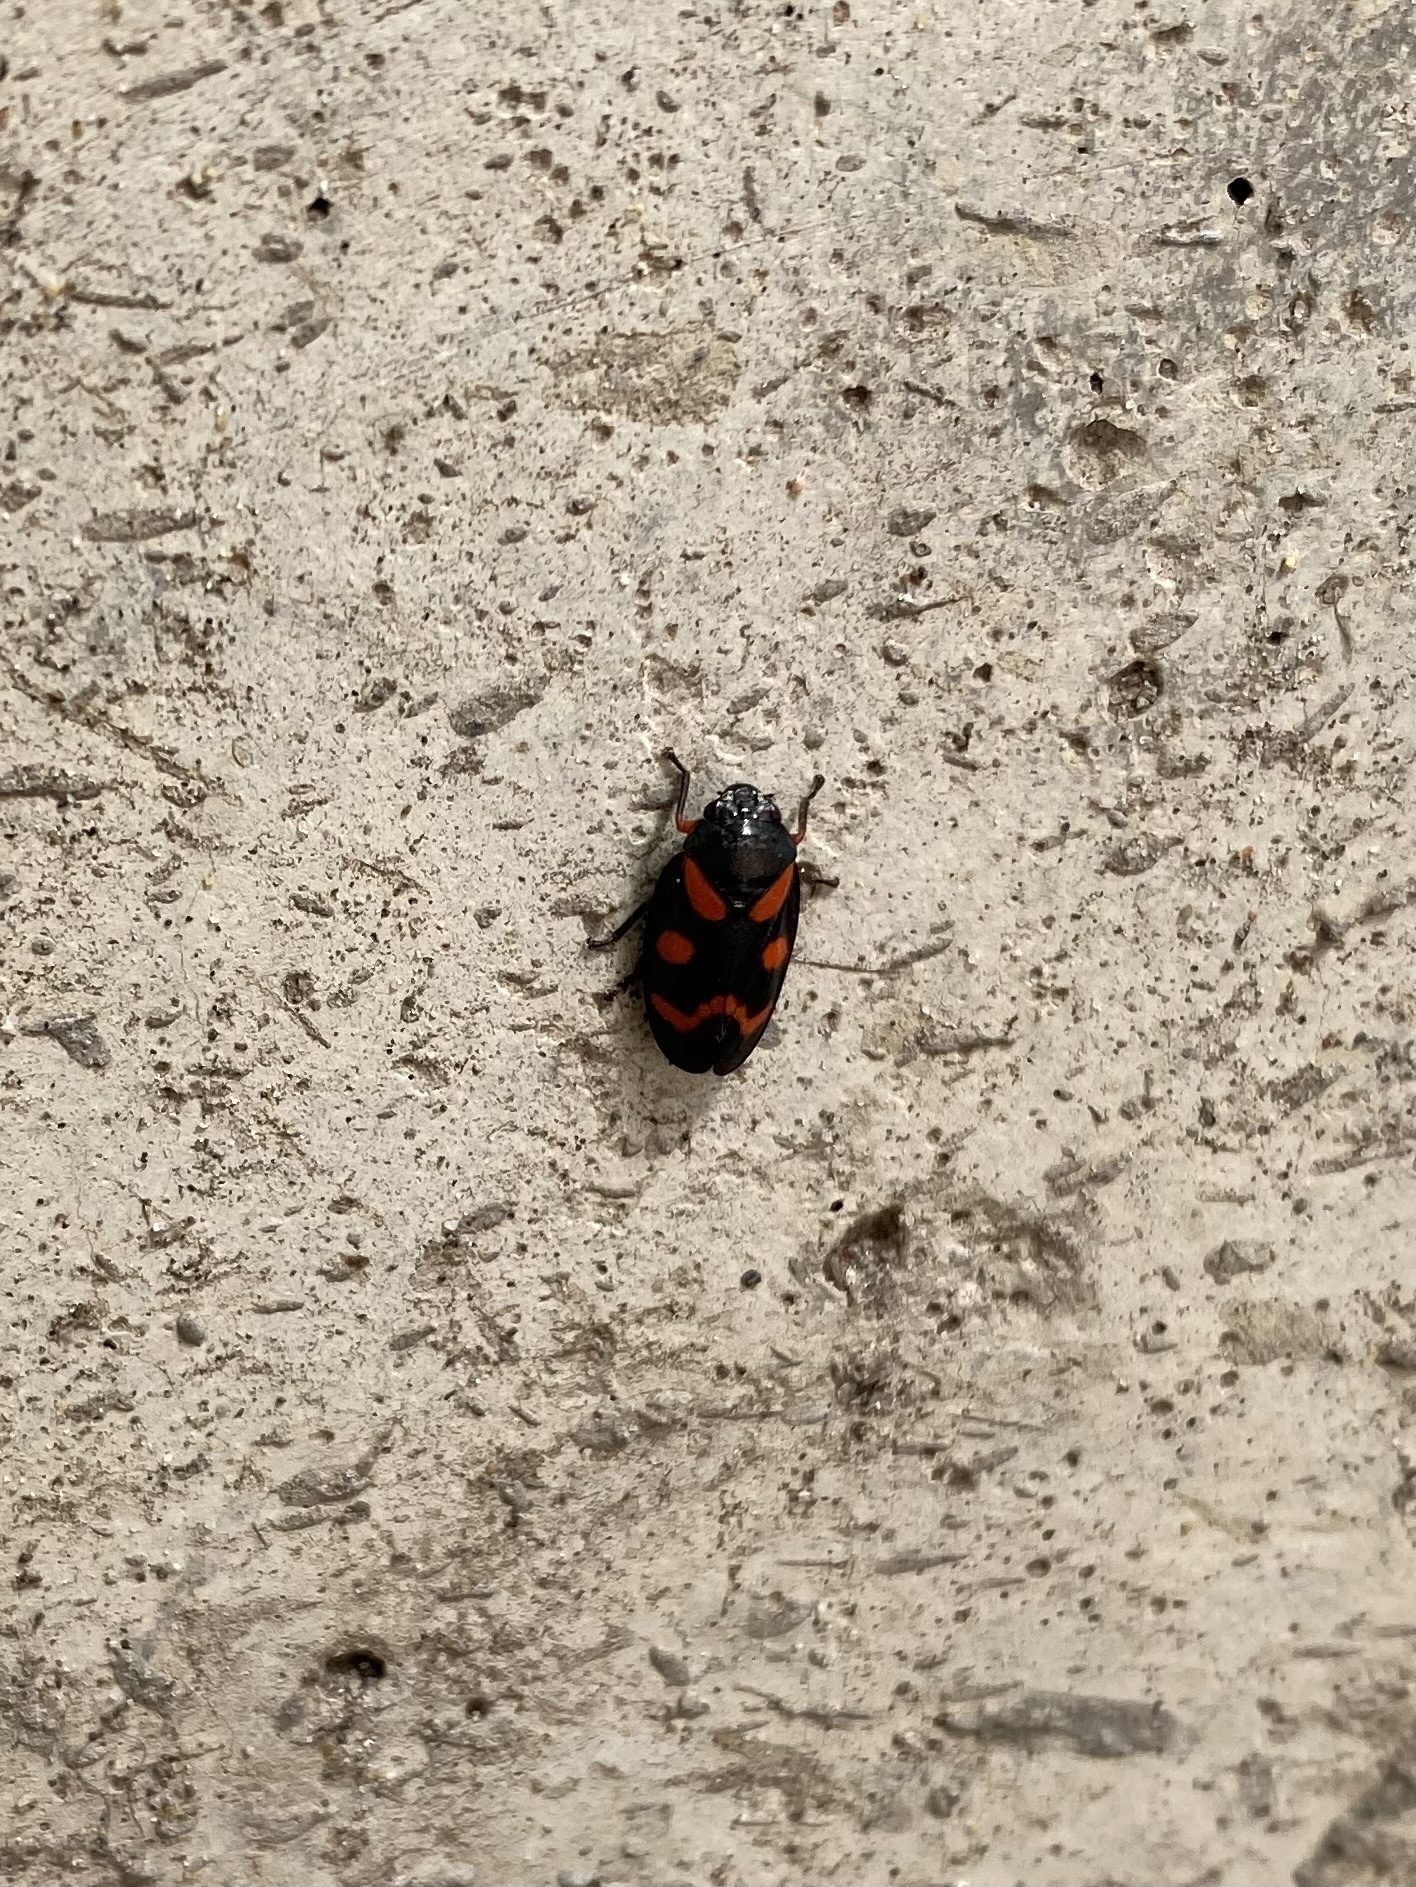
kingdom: Animalia
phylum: Arthropoda
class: Insecta
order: Hemiptera
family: Cercopidae
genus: Cercopis
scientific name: Cercopis intermedia
